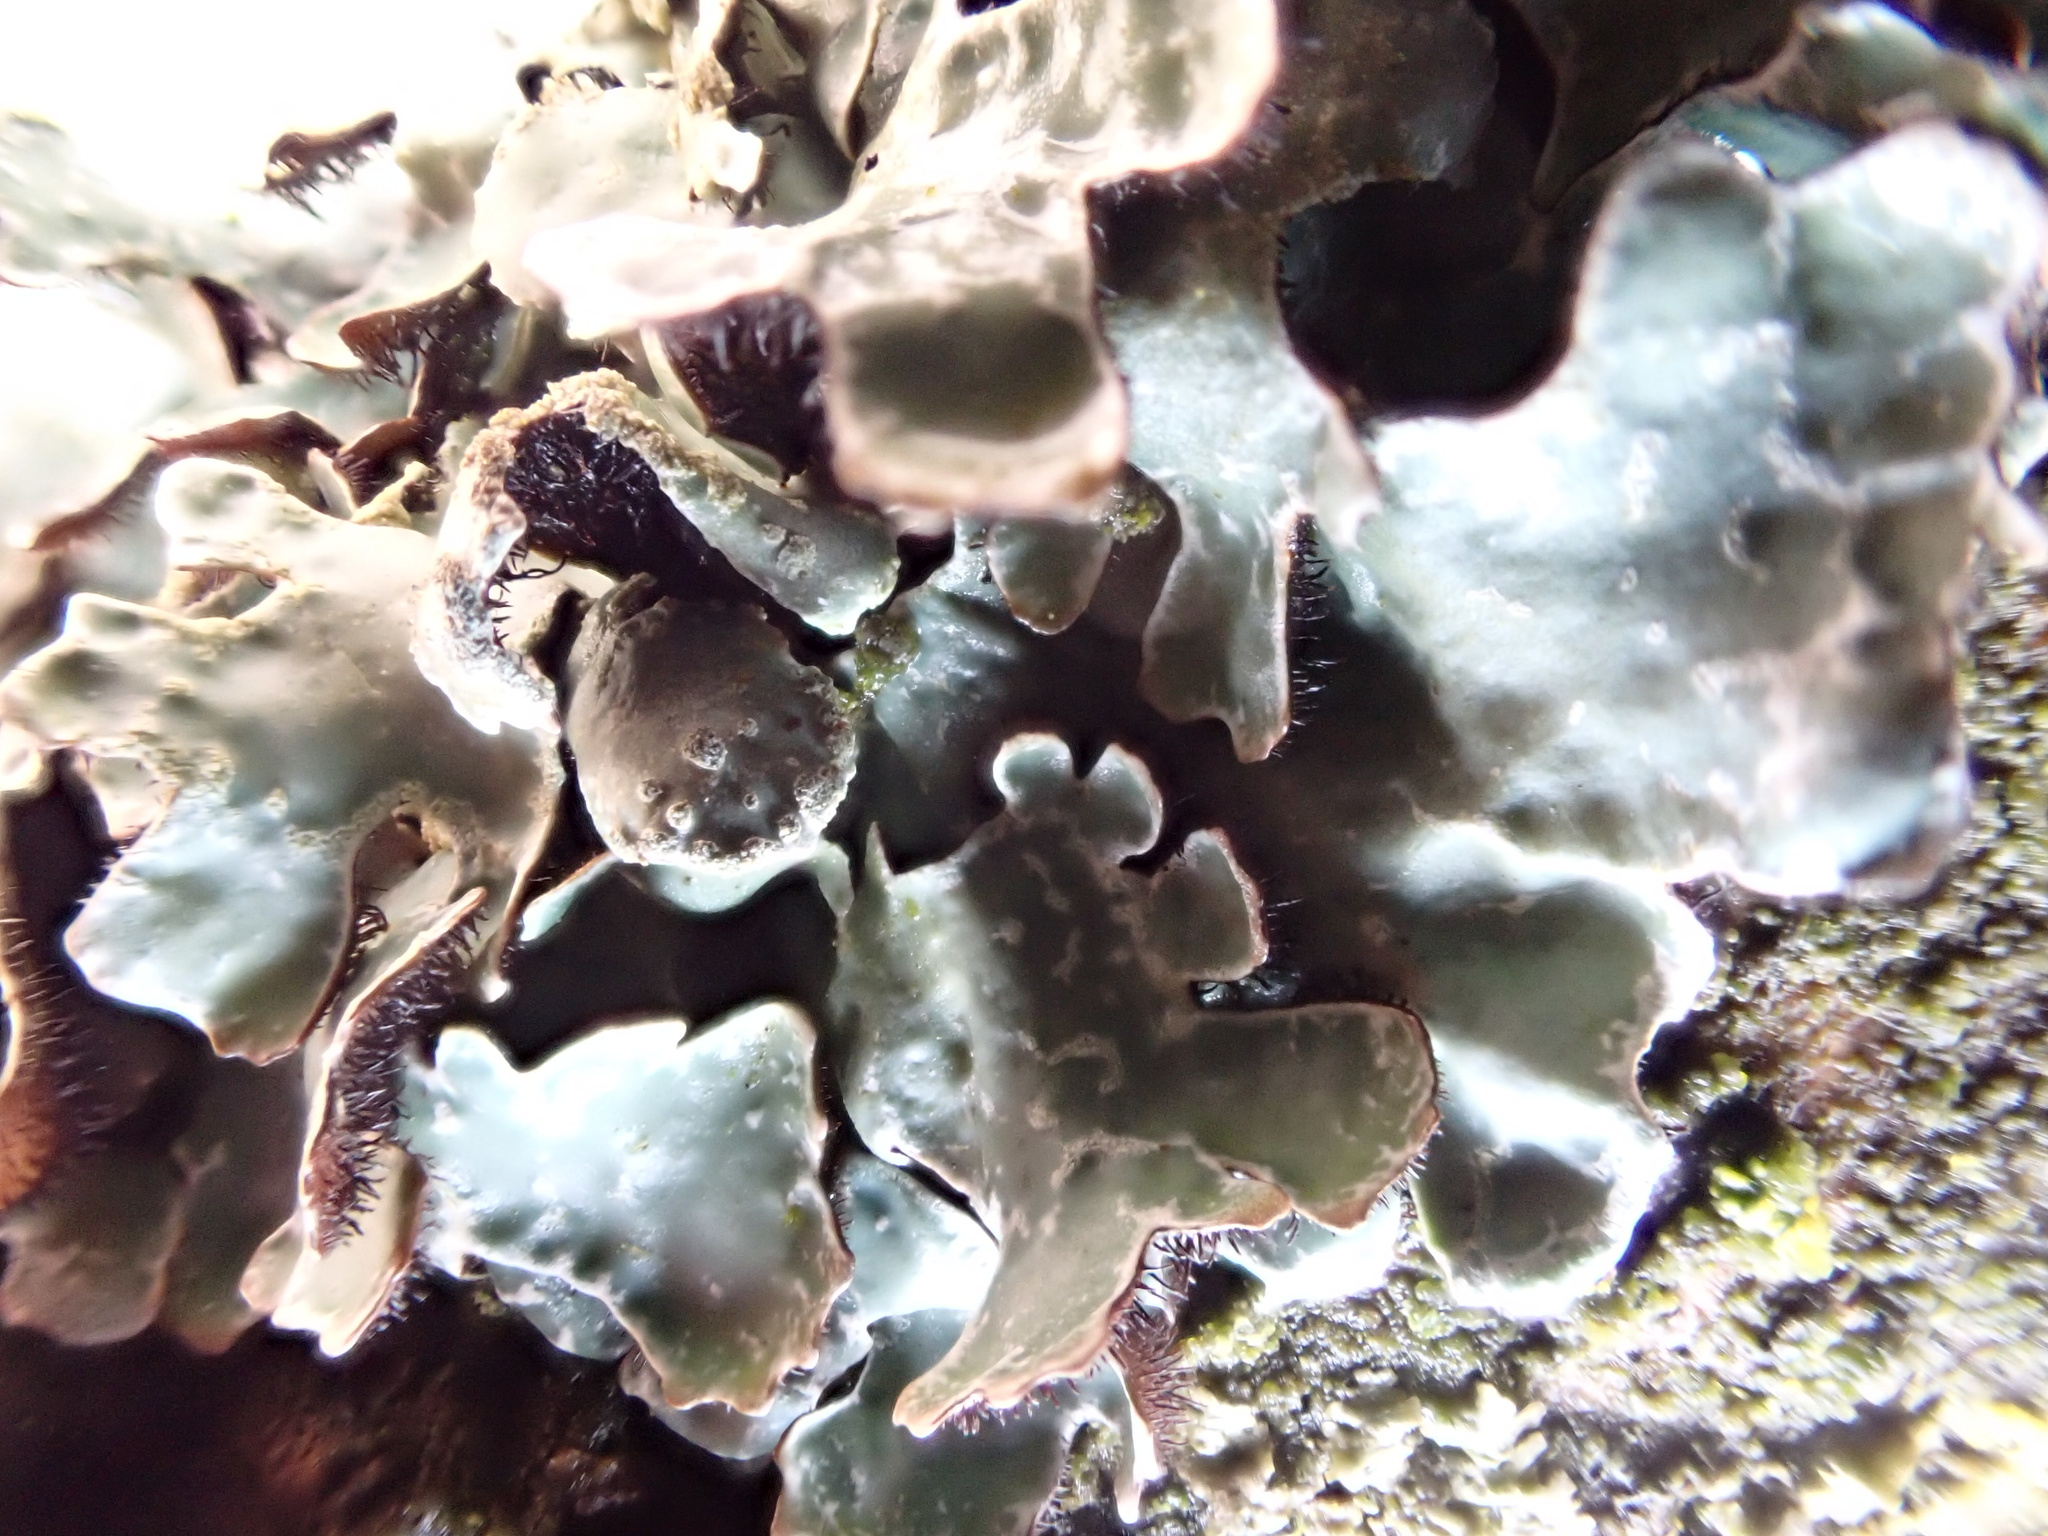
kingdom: Fungi
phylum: Ascomycota
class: Lecanoromycetes
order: Lecanorales
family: Parmeliaceae
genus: Parmelia
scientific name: Parmelia sulcata
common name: Netted shield lichen
